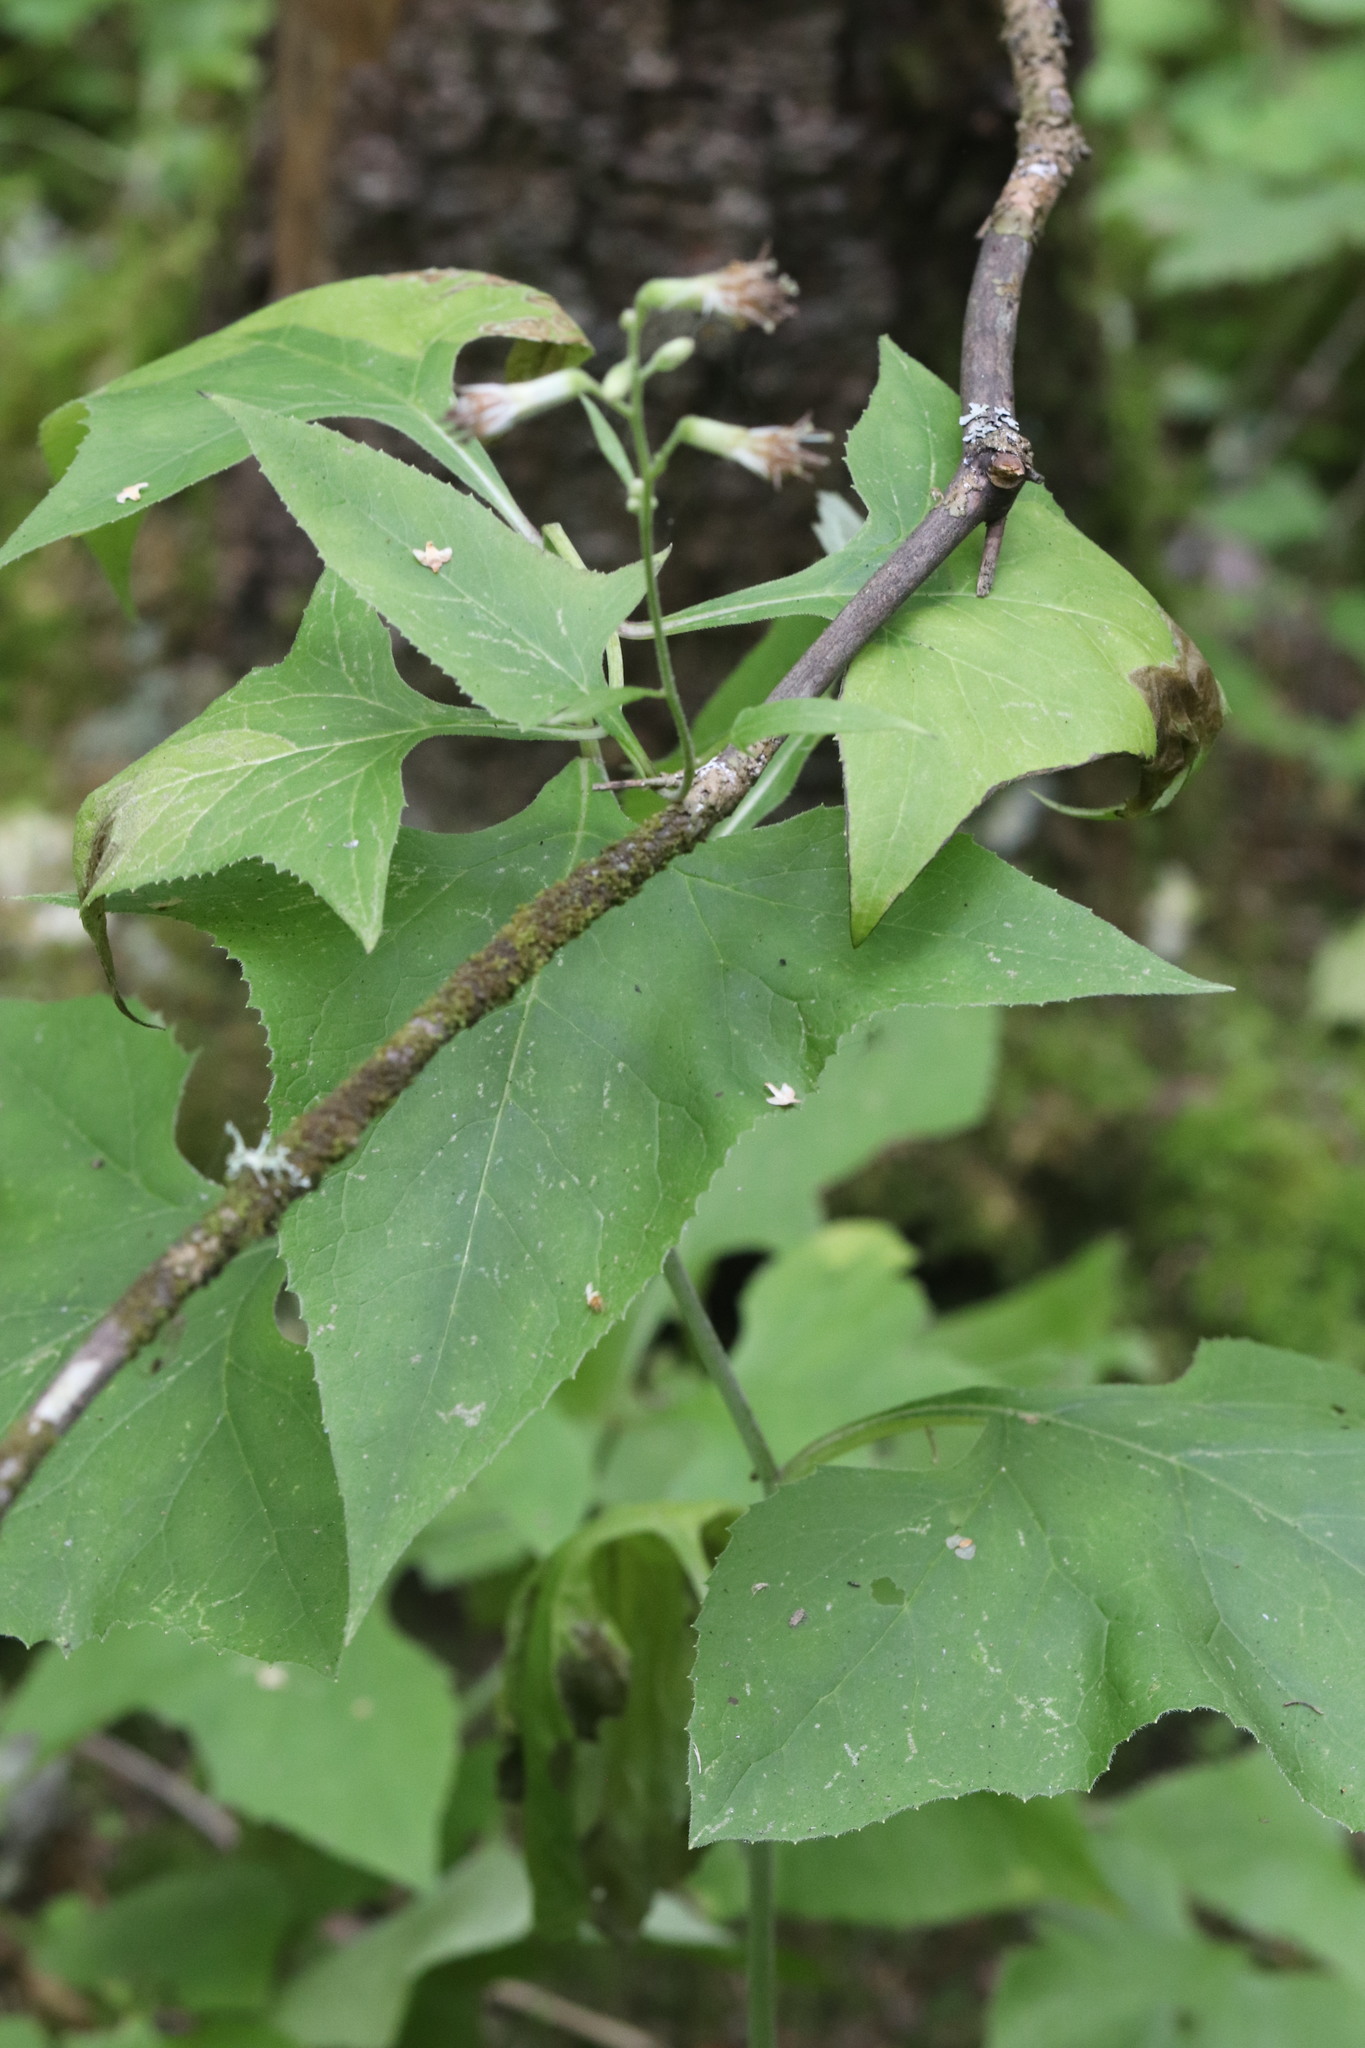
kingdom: Plantae
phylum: Tracheophyta
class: Magnoliopsida
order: Asterales
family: Asteraceae
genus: Parasenecio
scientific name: Parasenecio hastatus
